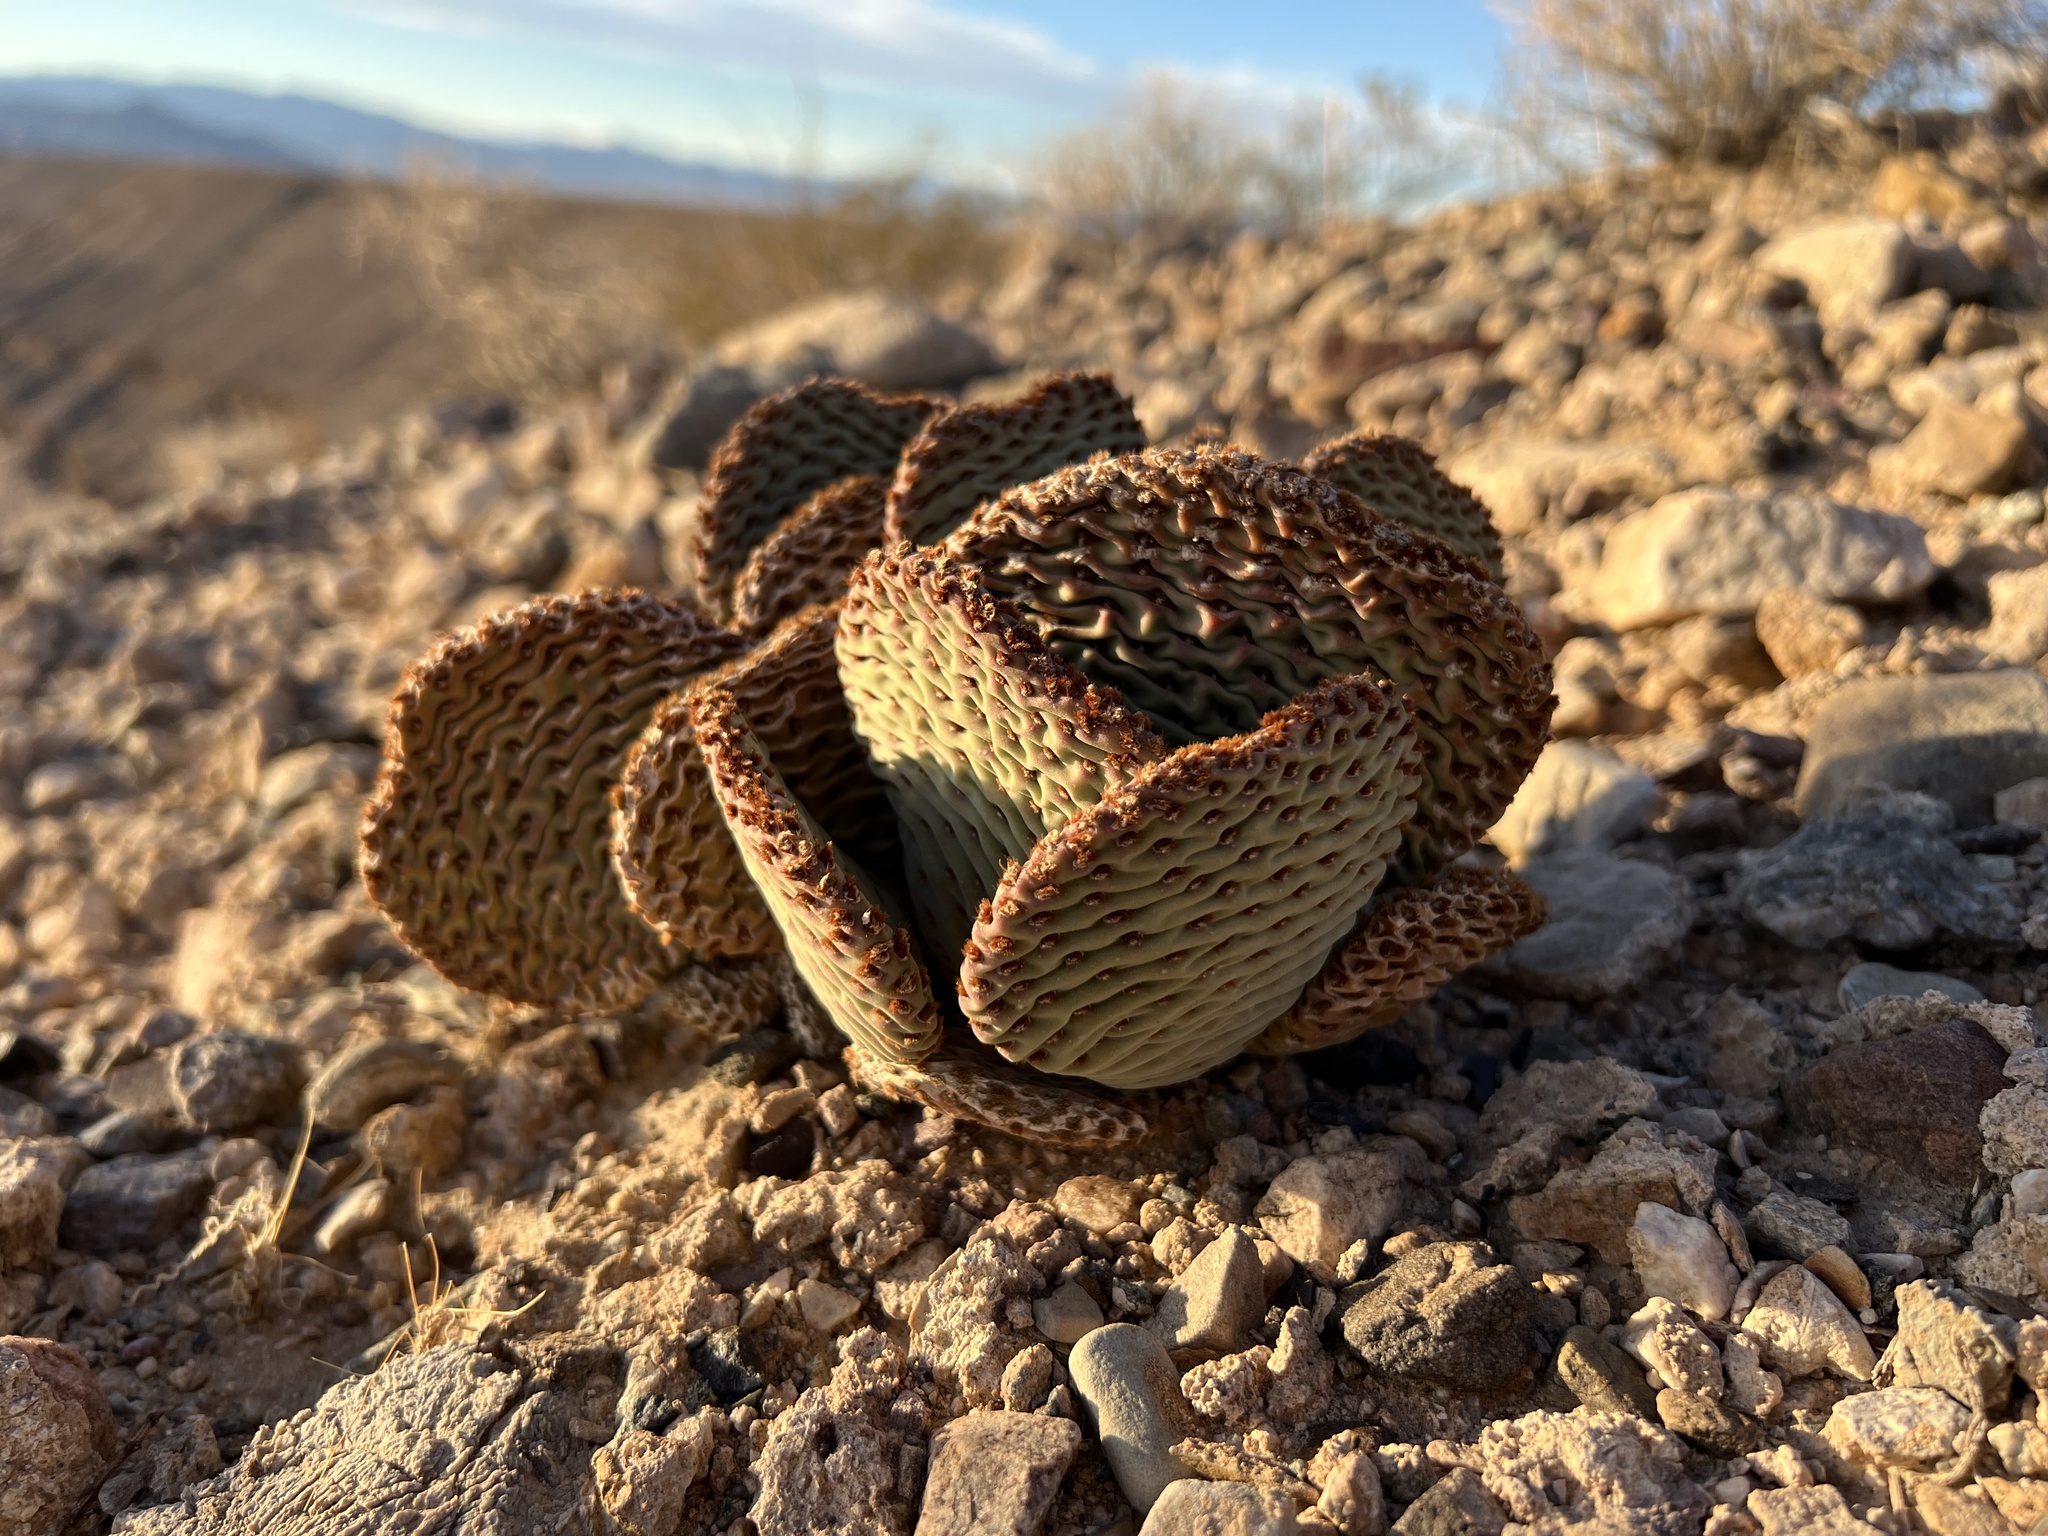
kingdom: Plantae
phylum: Tracheophyta
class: Magnoliopsida
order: Caryophyllales
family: Cactaceae
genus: Opuntia
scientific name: Opuntia basilaris
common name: Beavertail prickly-pear
